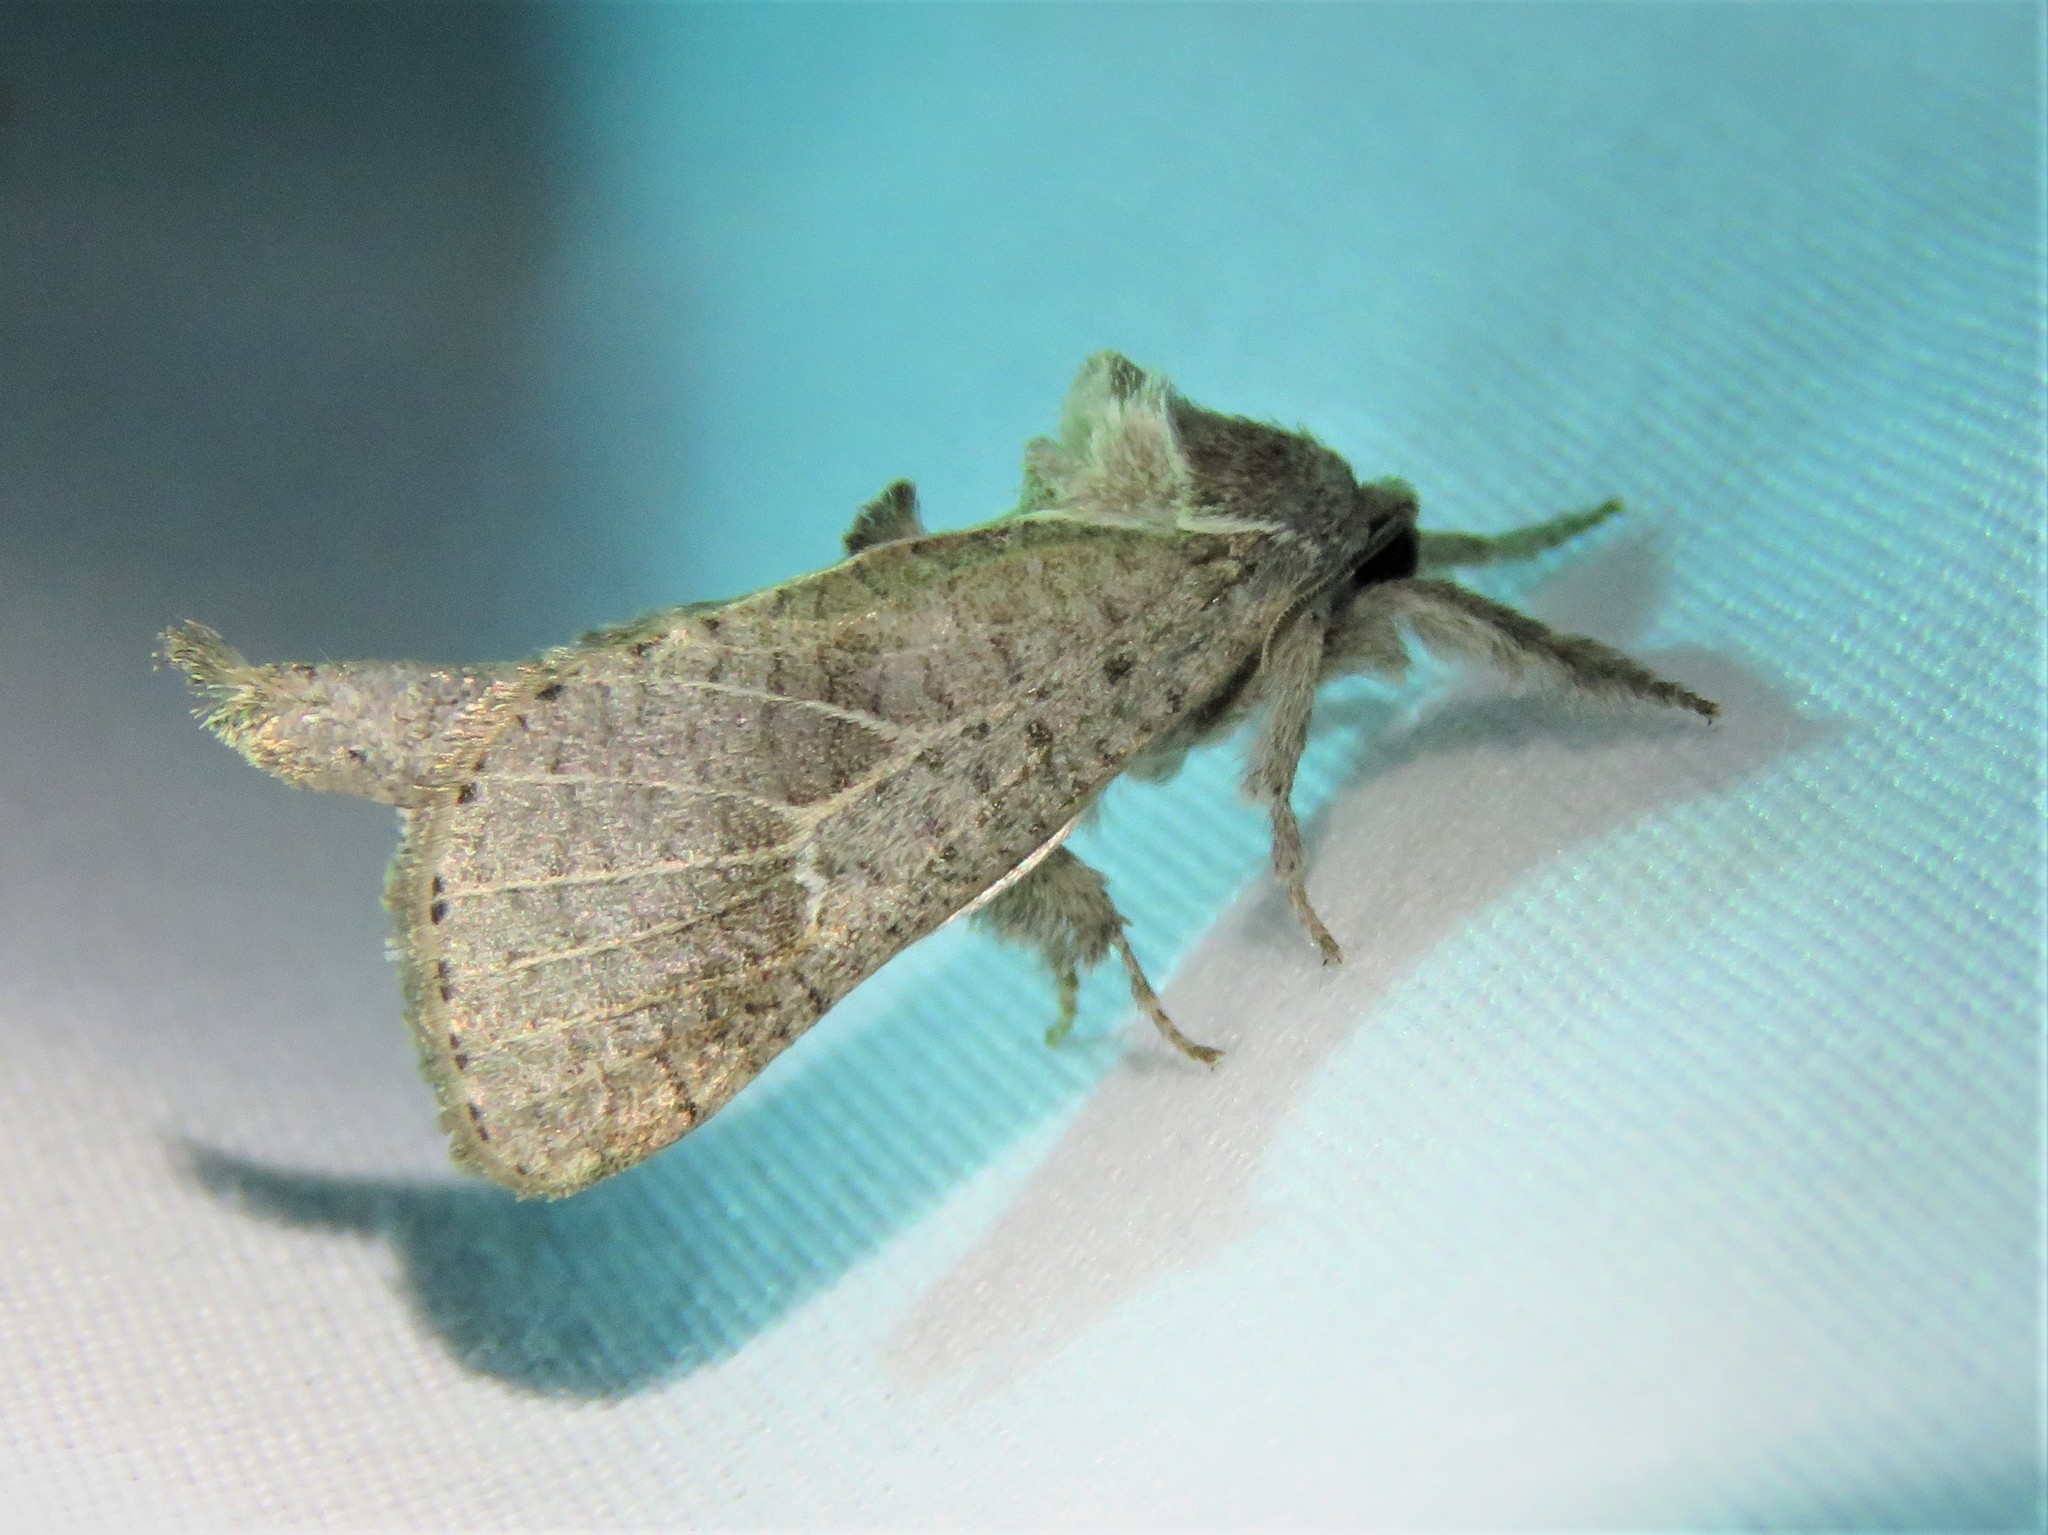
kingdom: Animalia
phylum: Arthropoda
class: Insecta
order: Lepidoptera
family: Cossidae
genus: Givira
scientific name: Givira anna
